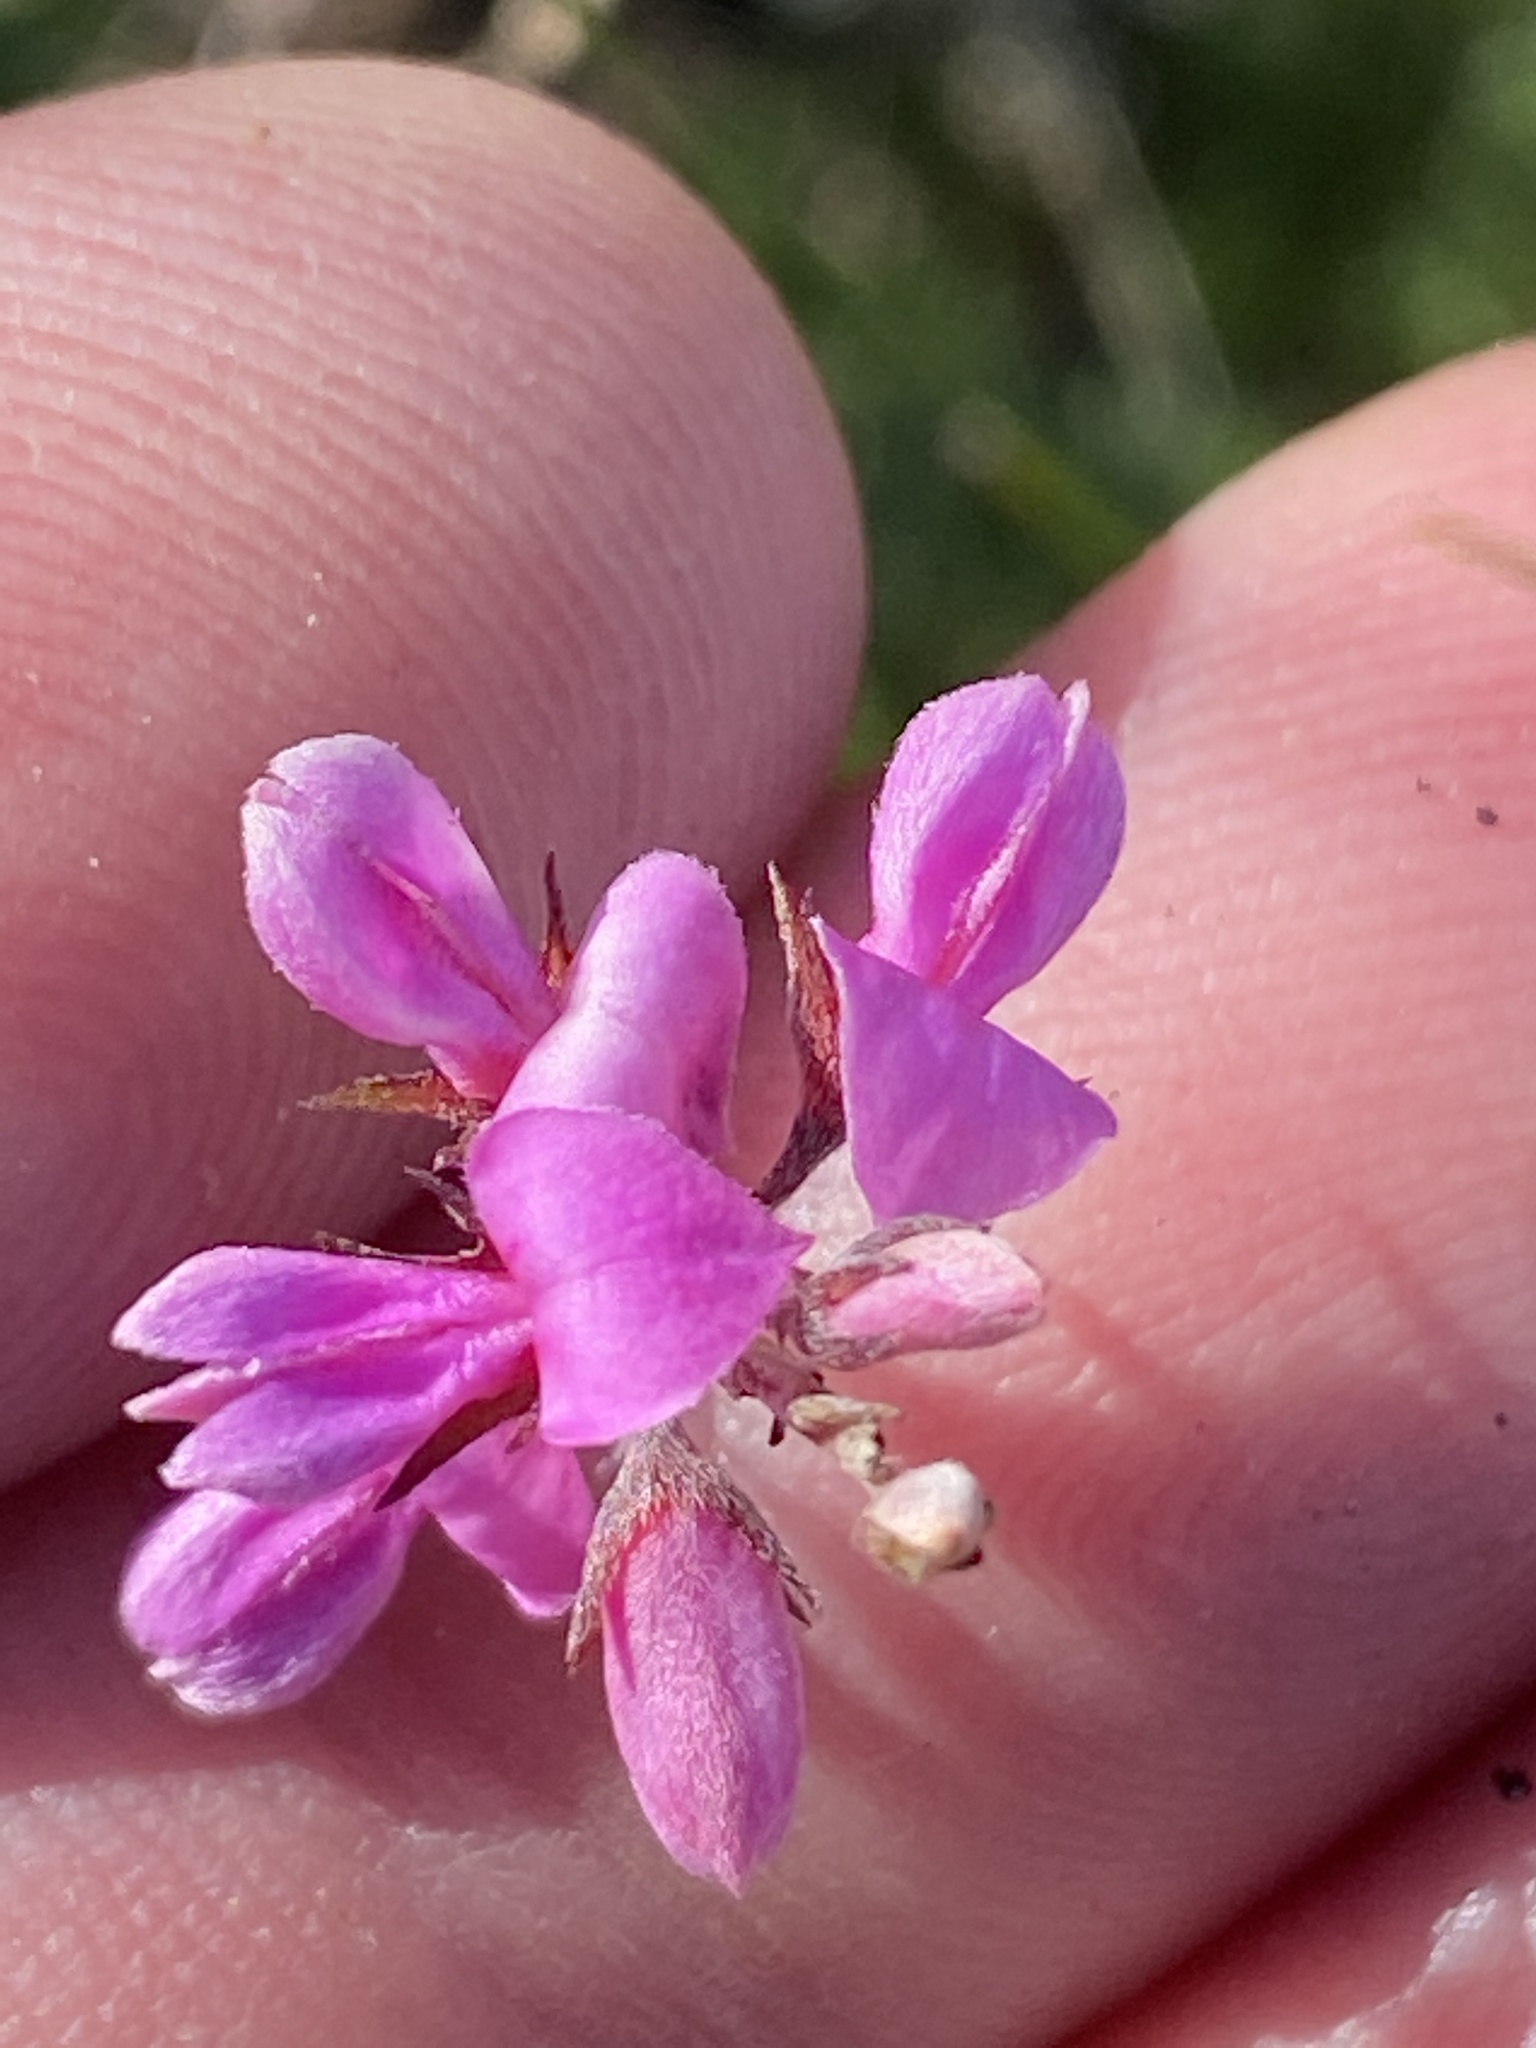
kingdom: Plantae
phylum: Tracheophyta
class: Magnoliopsida
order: Fabales
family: Fabaceae
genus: Indigofera
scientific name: Indigofera angustifolia
